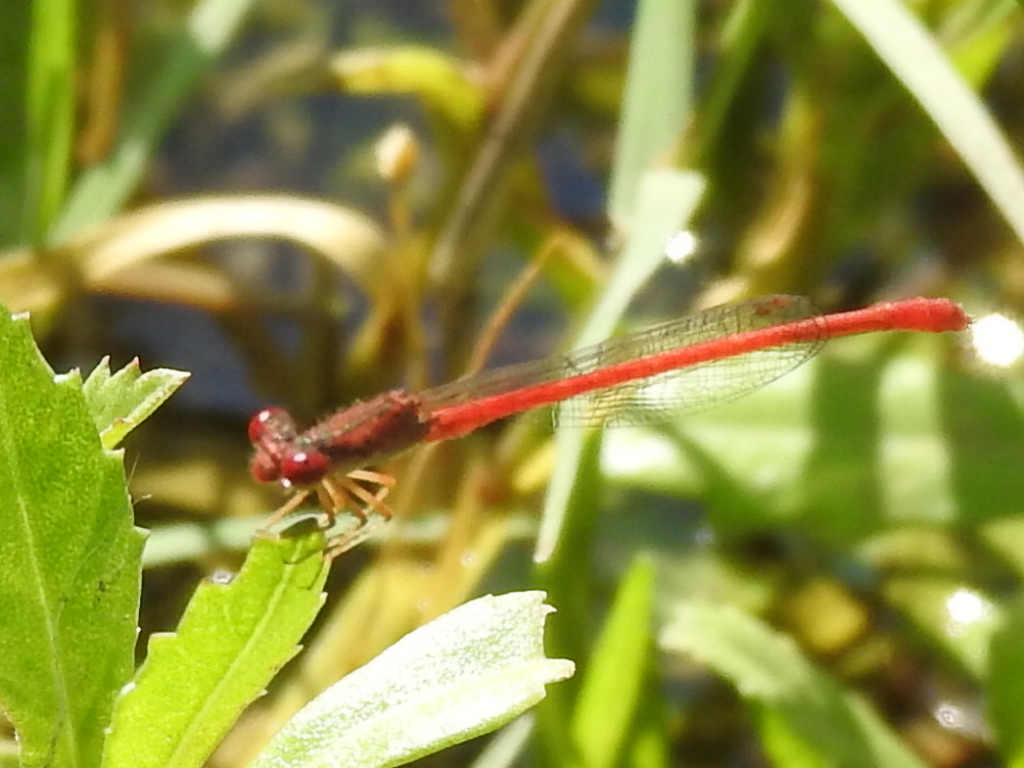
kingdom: Animalia
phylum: Arthropoda
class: Insecta
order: Odonata
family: Coenagrionidae
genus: Telebasis
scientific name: Telebasis salva
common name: Desert firetail
